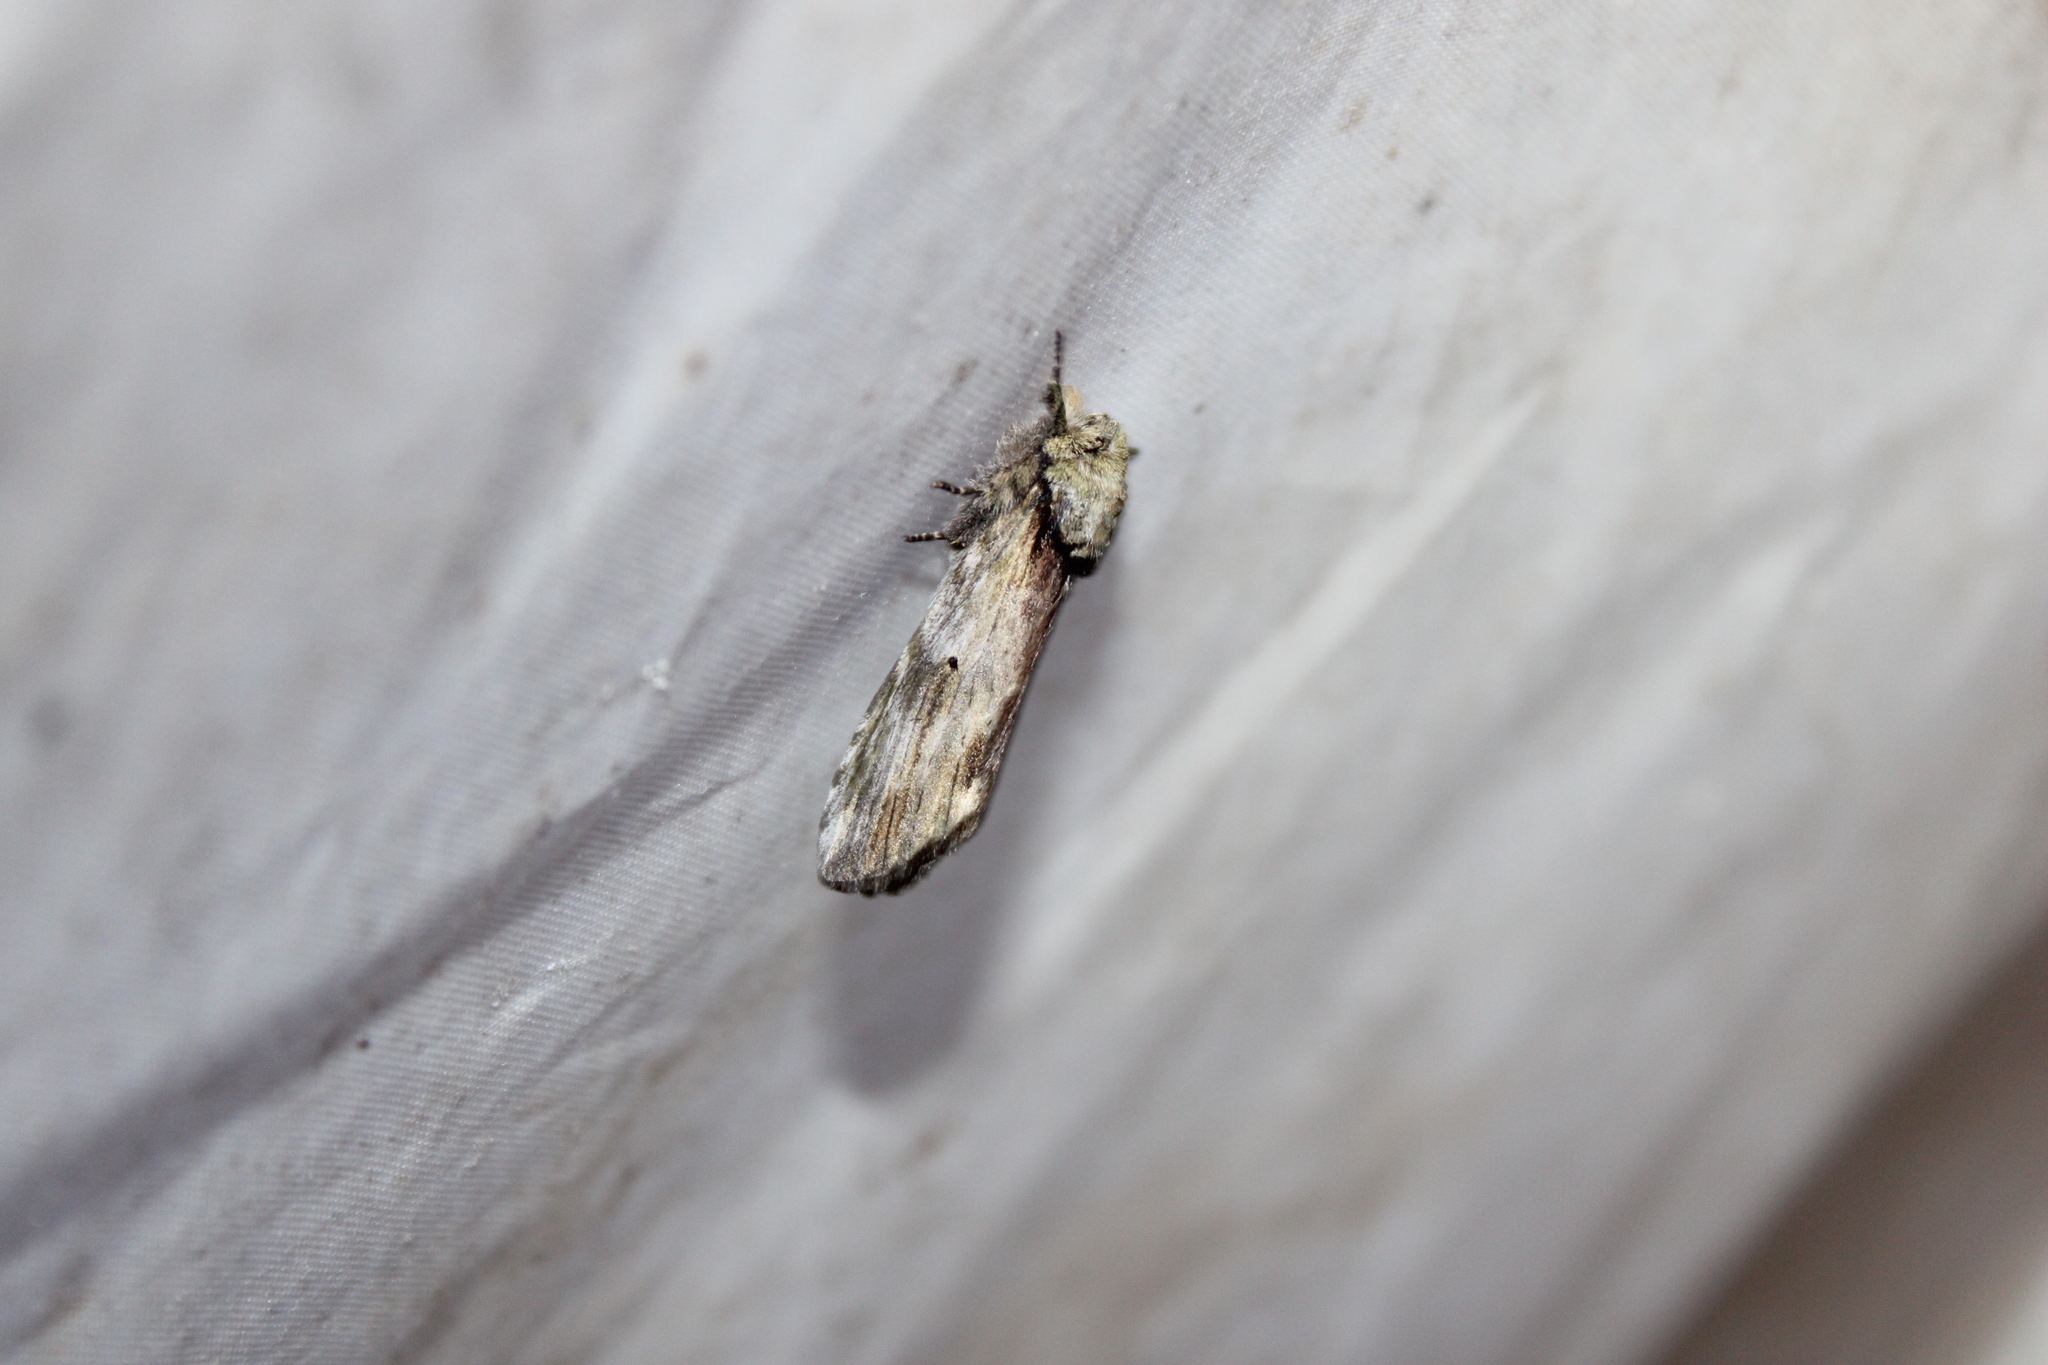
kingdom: Animalia
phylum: Arthropoda
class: Insecta
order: Lepidoptera
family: Notodontidae
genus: Schizura
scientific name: Schizura
